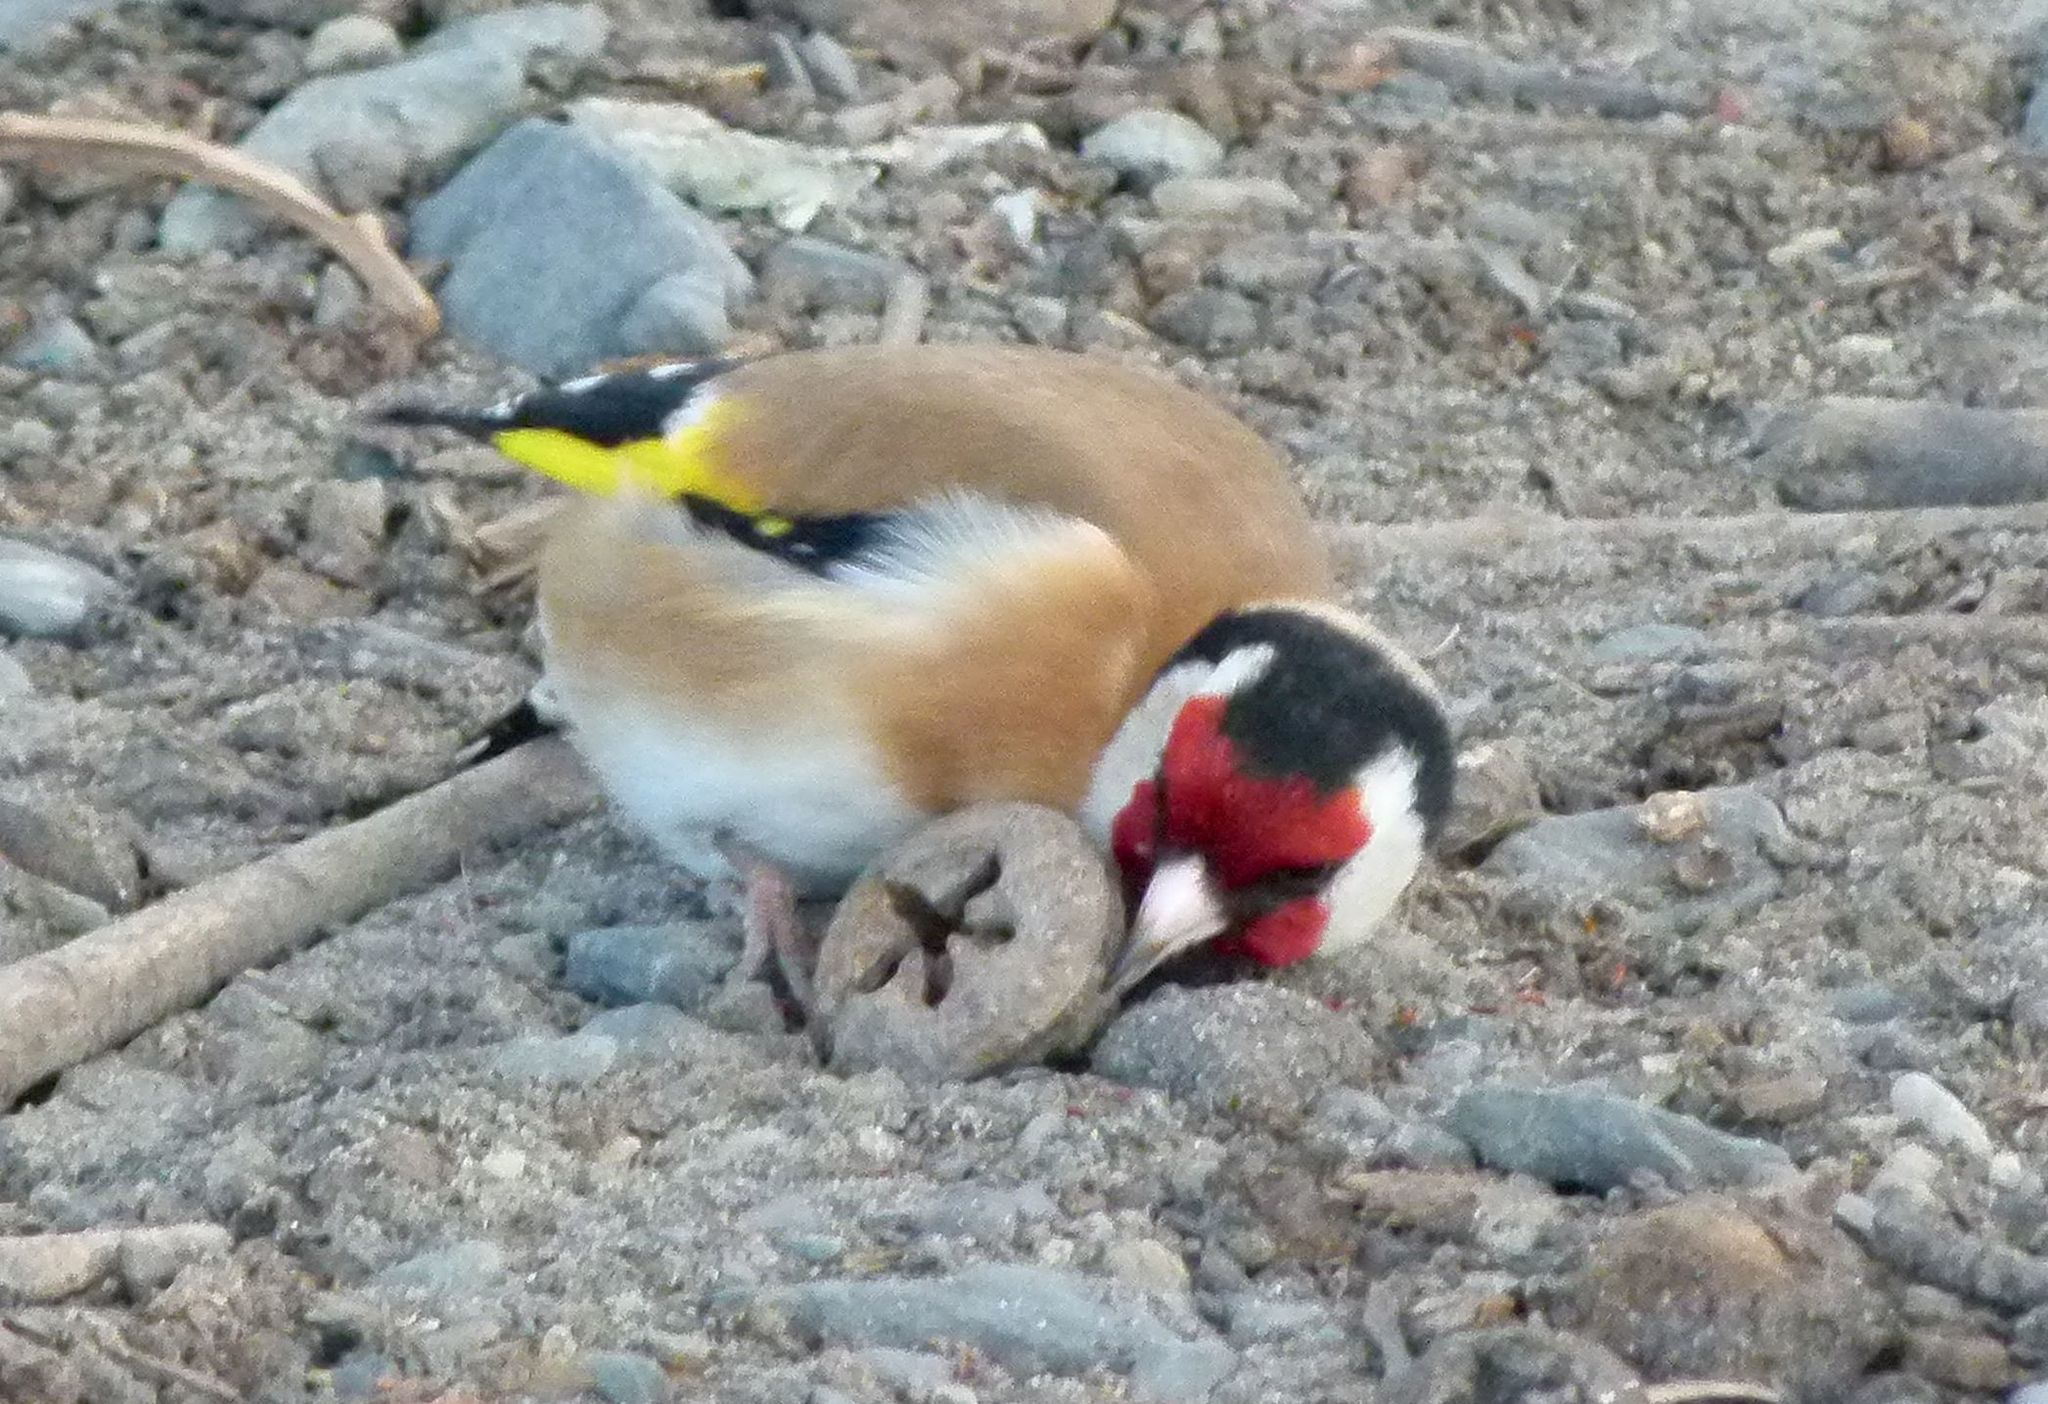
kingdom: Animalia
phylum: Chordata
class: Aves
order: Passeriformes
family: Fringillidae
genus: Carduelis
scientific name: Carduelis carduelis
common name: European goldfinch
